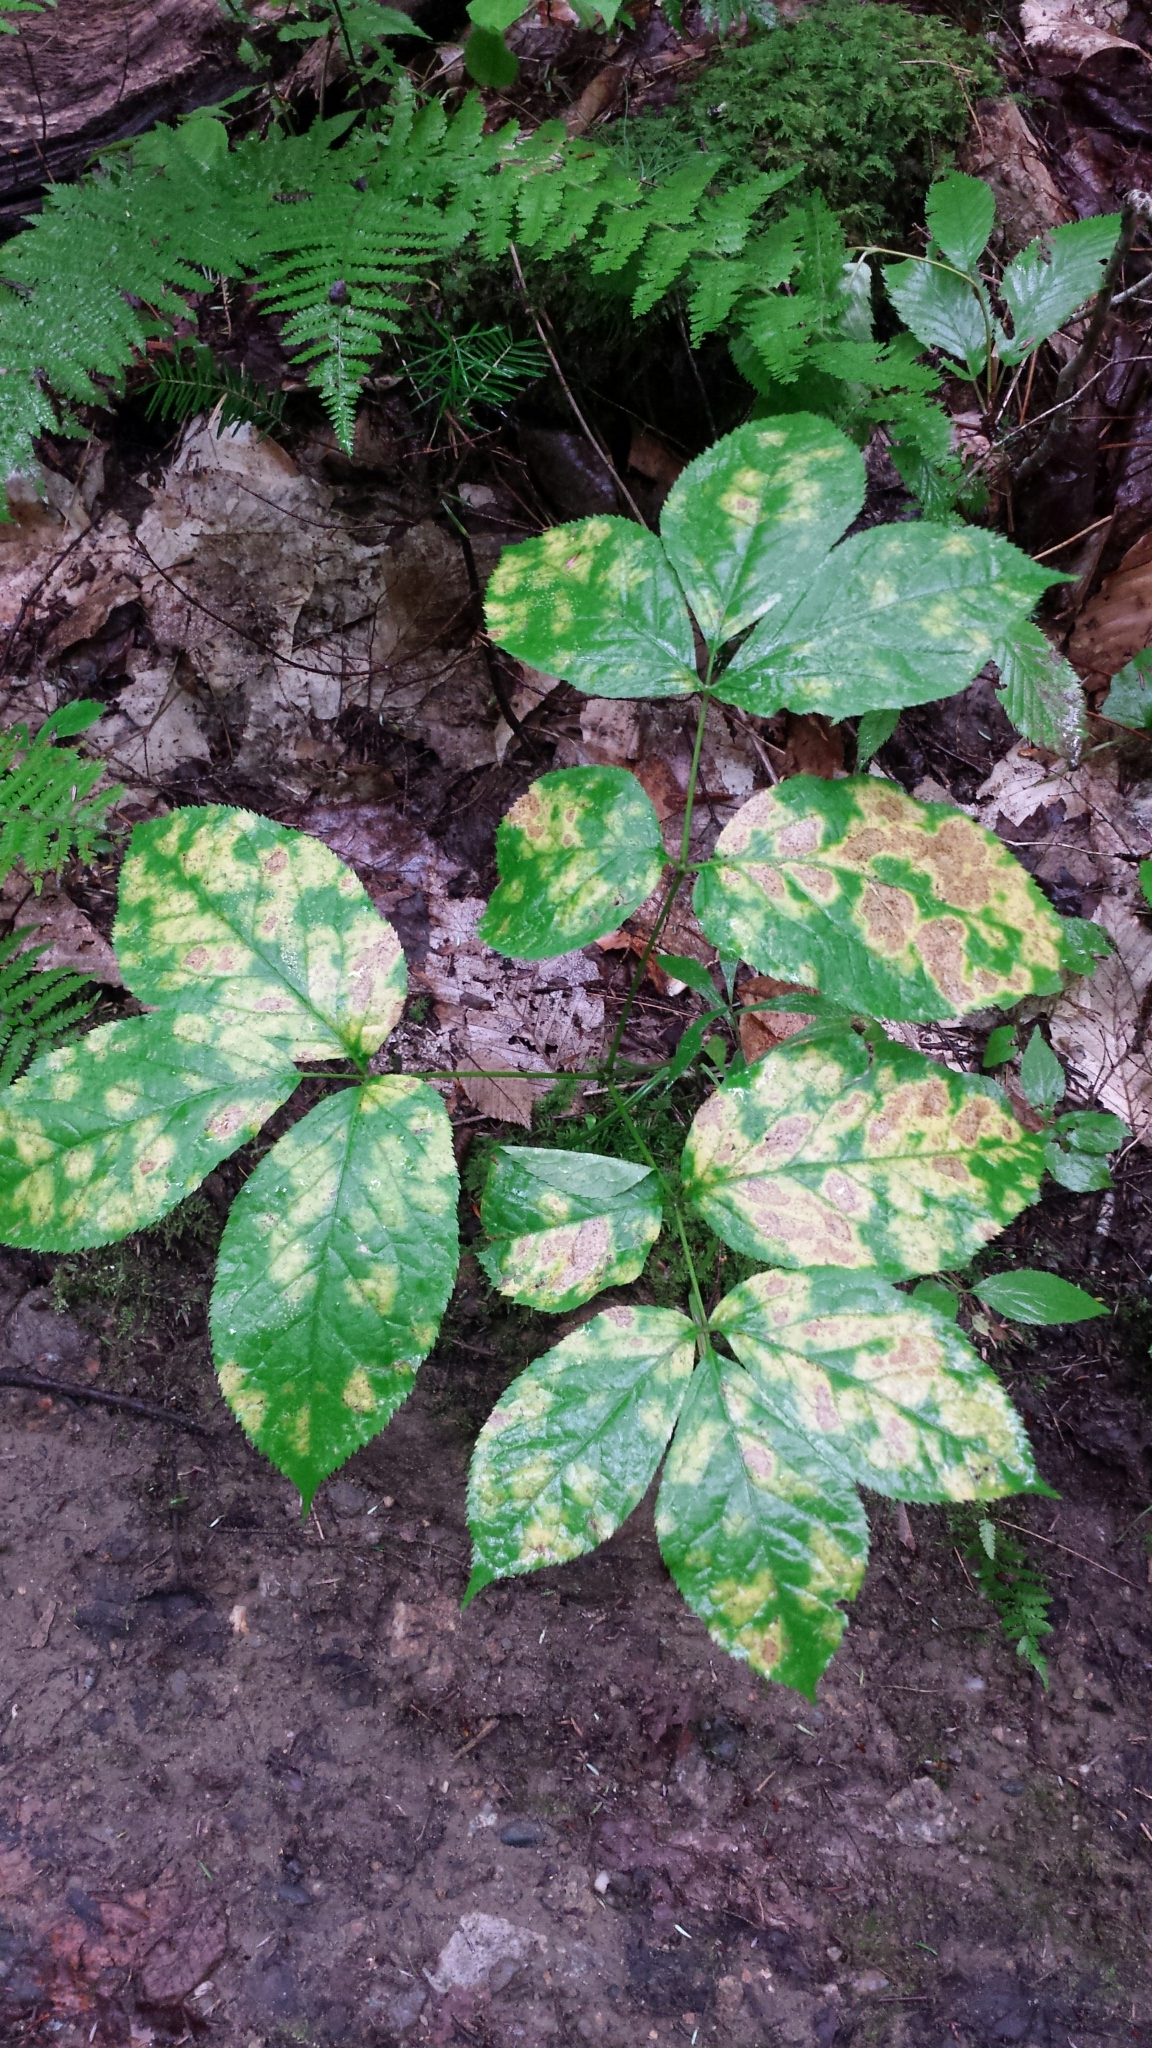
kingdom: Plantae
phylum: Tracheophyta
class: Magnoliopsida
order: Apiales
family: Araliaceae
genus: Aralia
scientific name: Aralia nudicaulis
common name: Wild sarsaparilla
